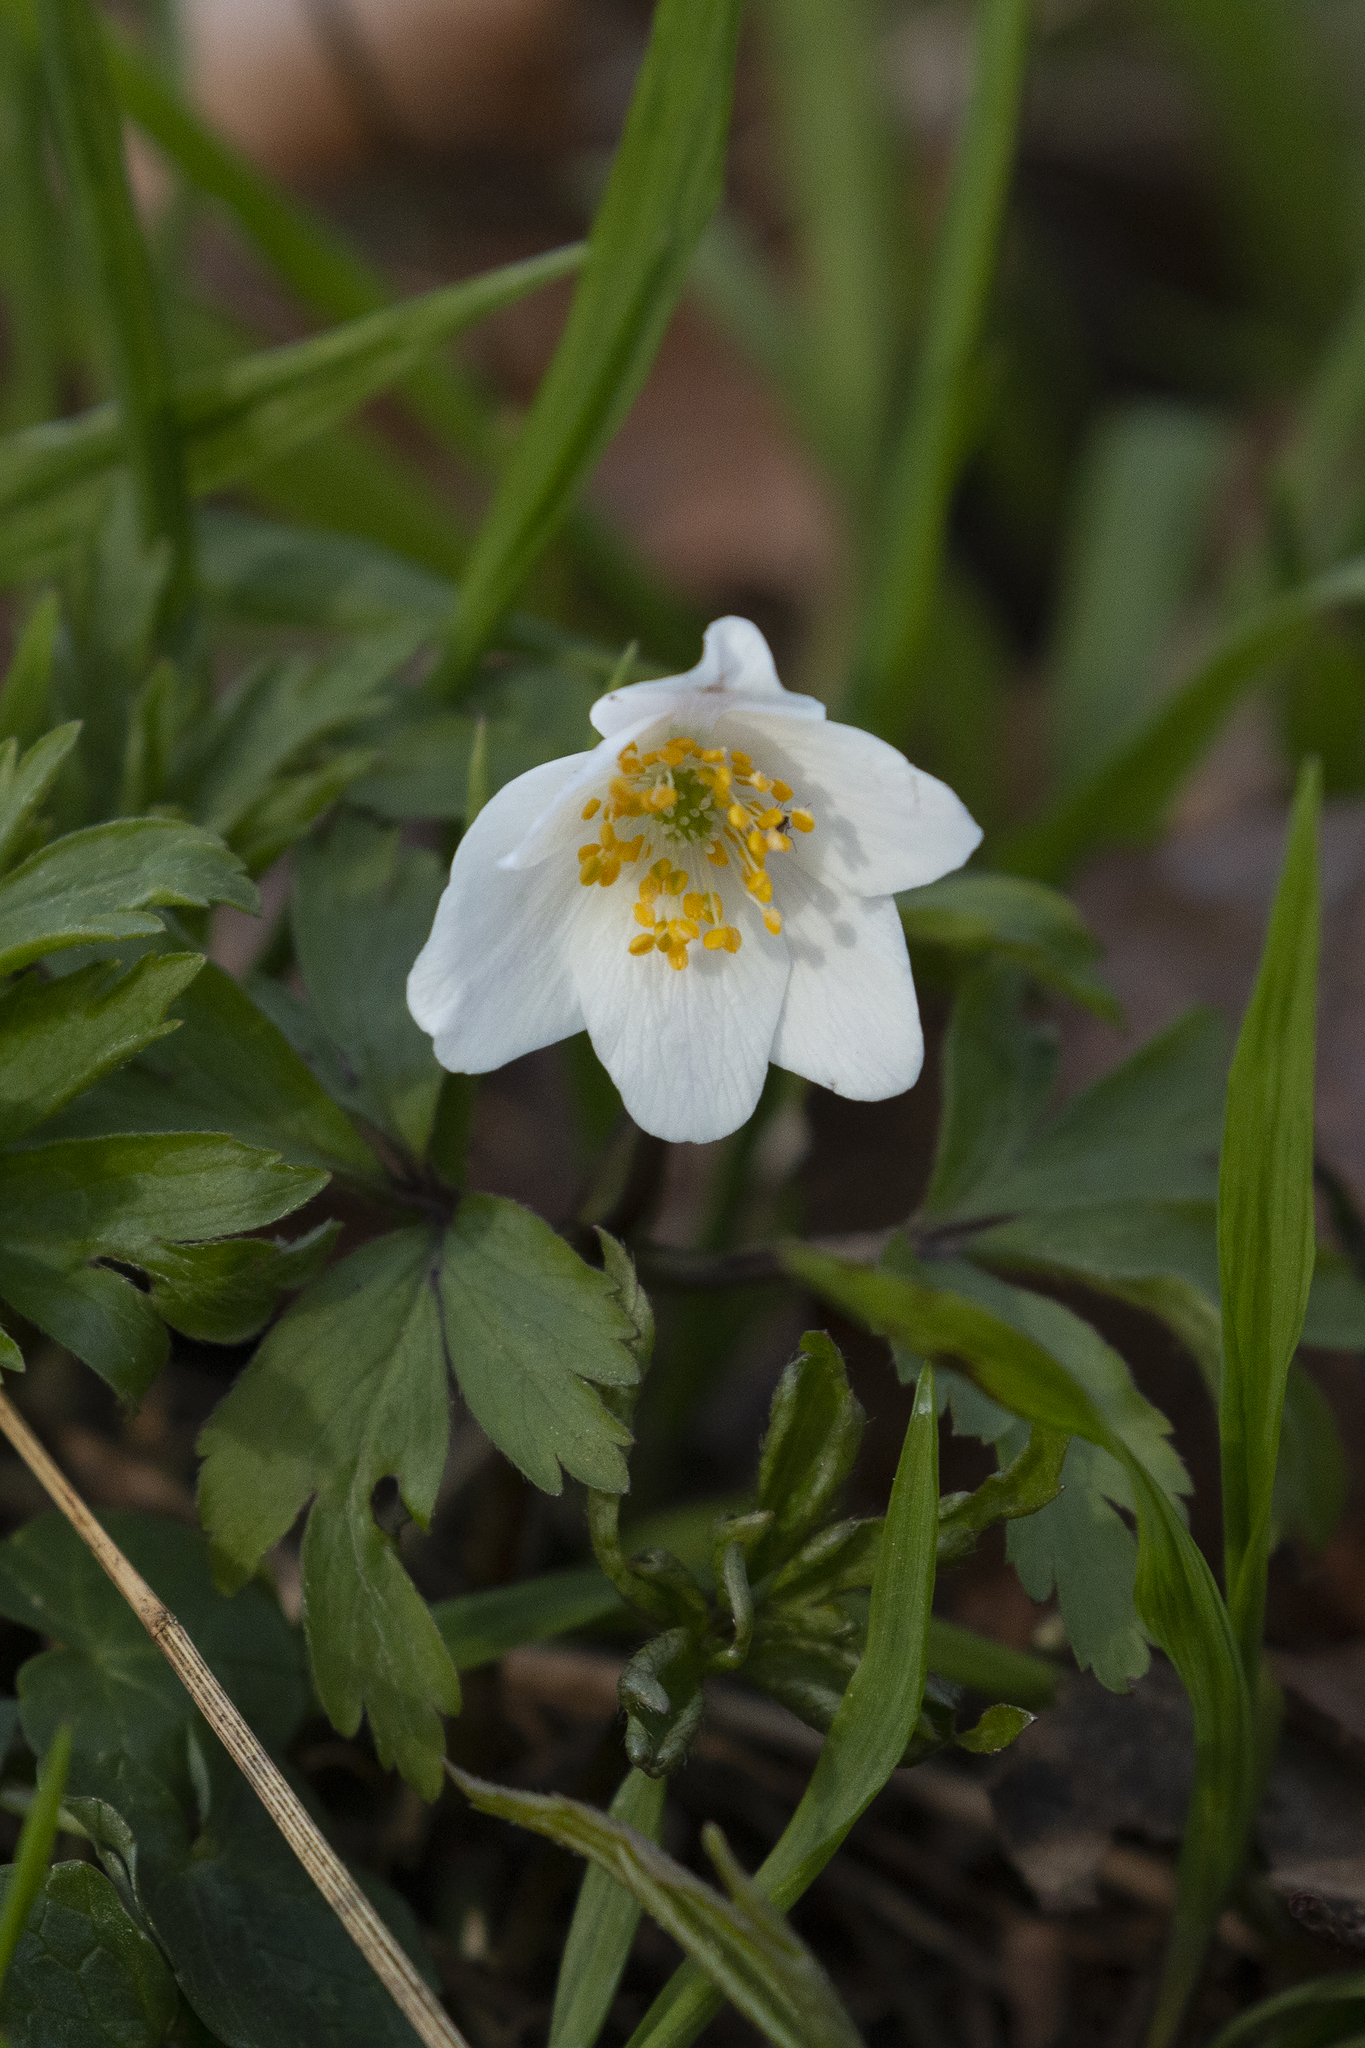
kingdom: Plantae
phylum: Tracheophyta
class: Magnoliopsida
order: Ranunculales
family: Ranunculaceae
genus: Anemone
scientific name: Anemone nemorosa
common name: Wood anemone
